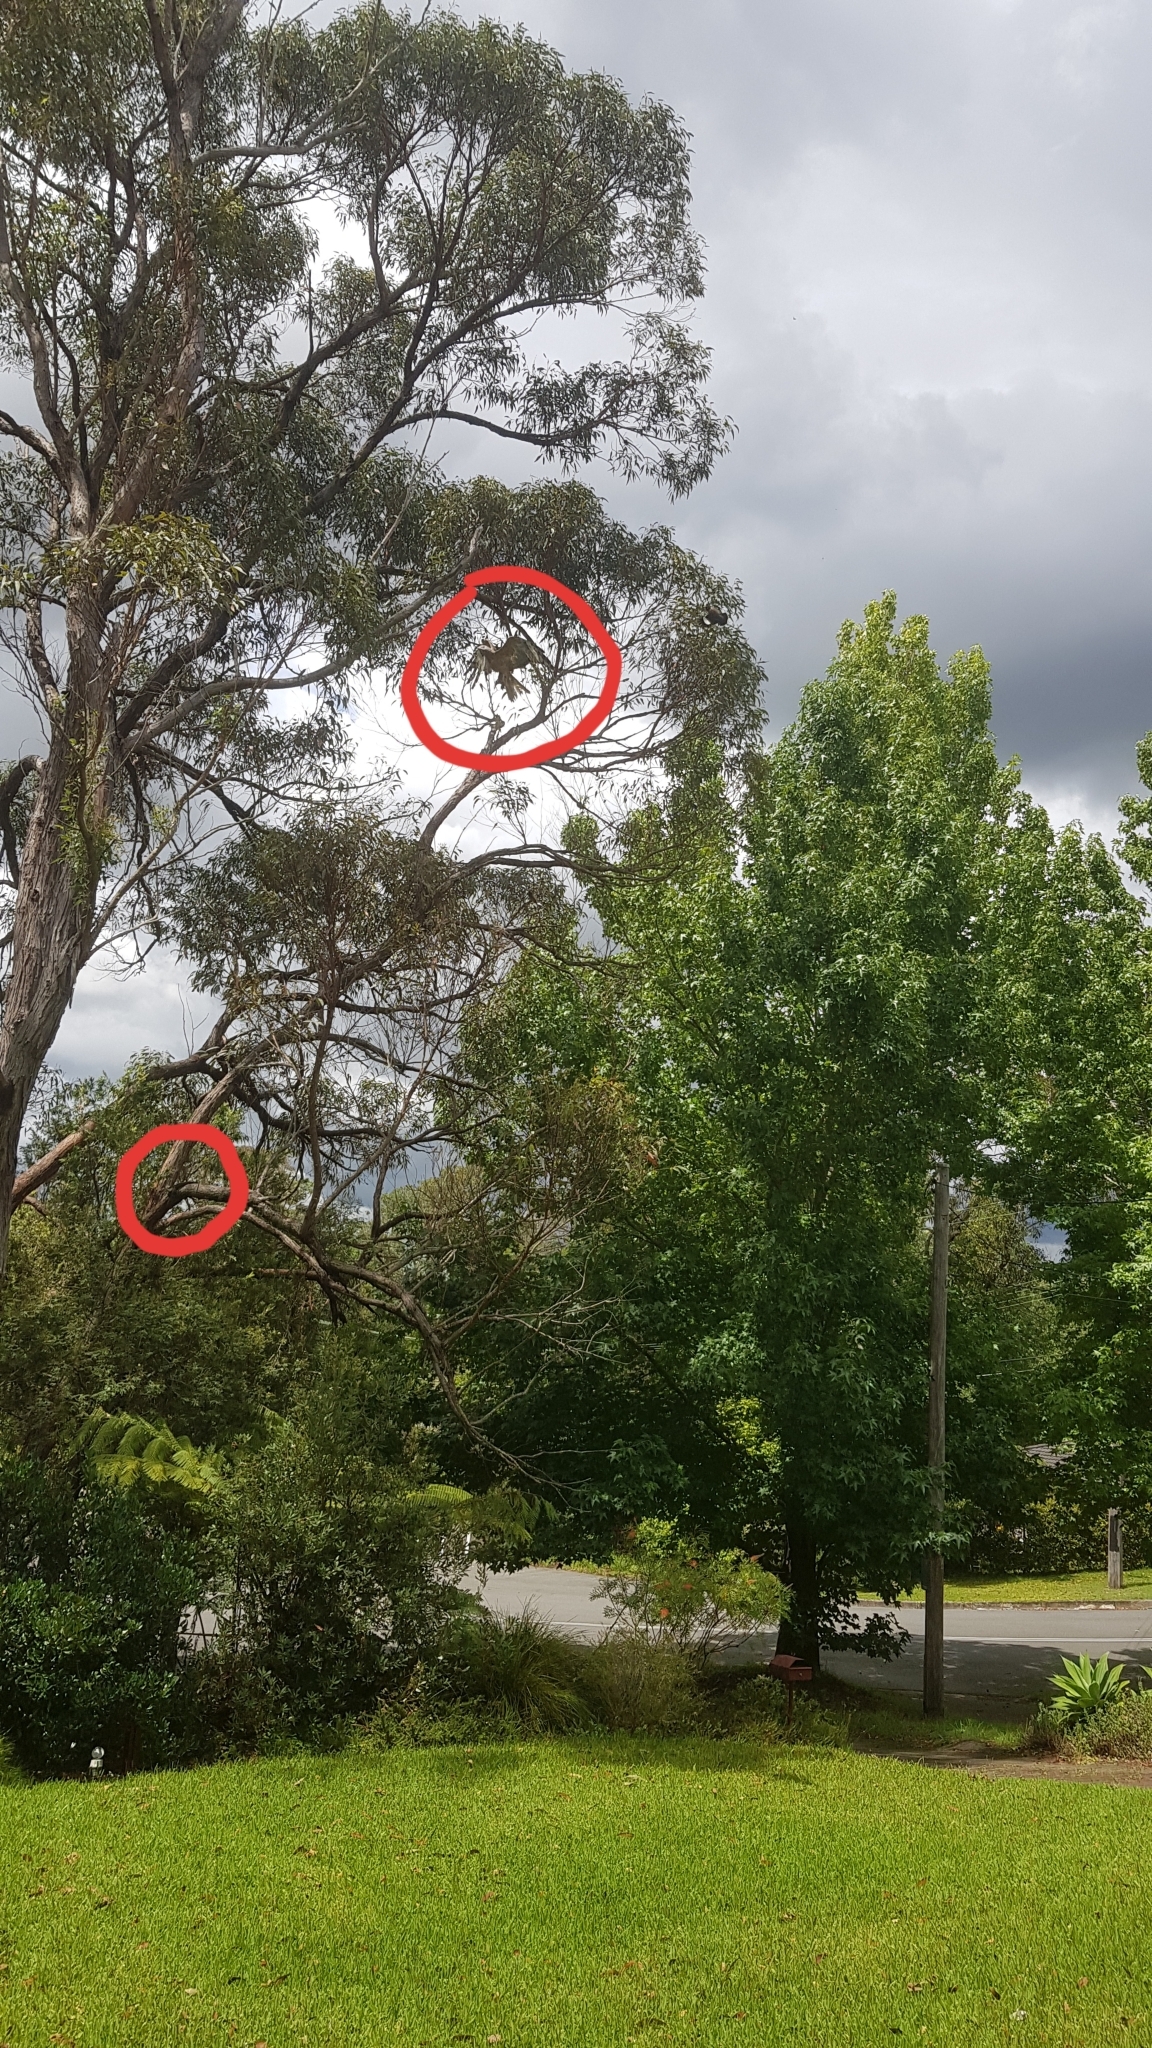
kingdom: Animalia
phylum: Chordata
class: Squamata
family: Agamidae
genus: Intellagama
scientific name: Intellagama lesueurii
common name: Eastern water dragon
